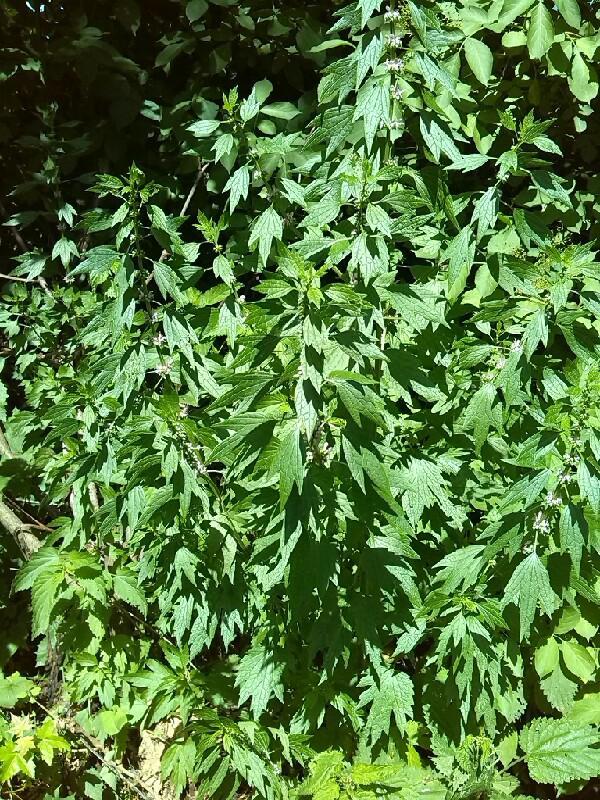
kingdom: Plantae
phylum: Tracheophyta
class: Magnoliopsida
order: Lamiales
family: Lamiaceae
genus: Leonurus
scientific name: Leonurus cardiaca
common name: Motherwort
